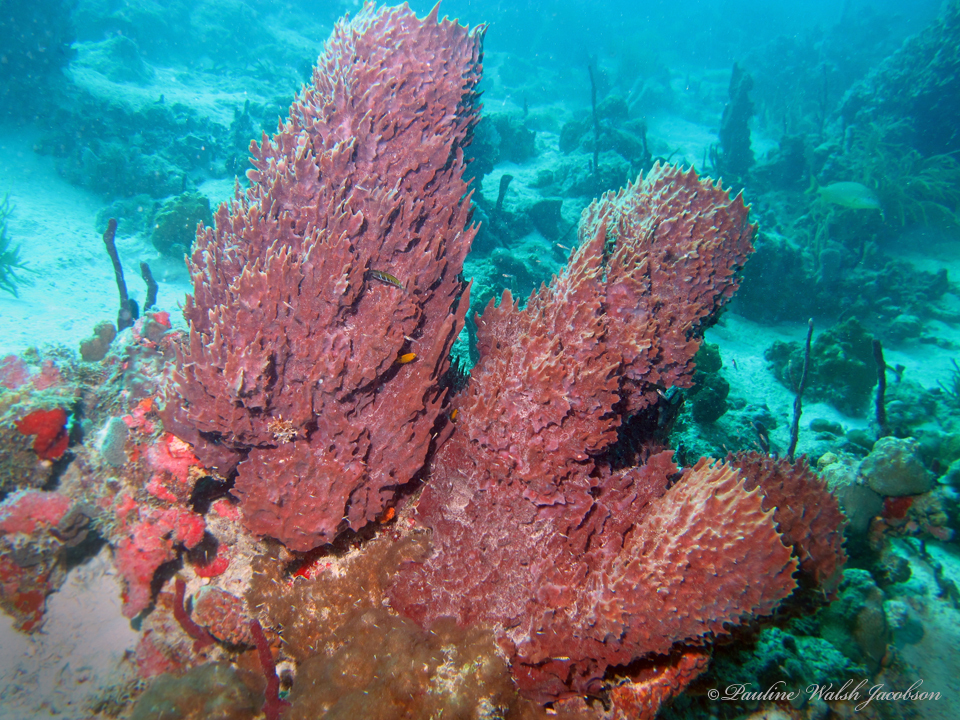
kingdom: Animalia
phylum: Porifera
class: Demospongiae
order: Haplosclerida
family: Petrosiidae
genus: Xestospongia
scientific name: Xestospongia muta
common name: Giant barrel sponge
